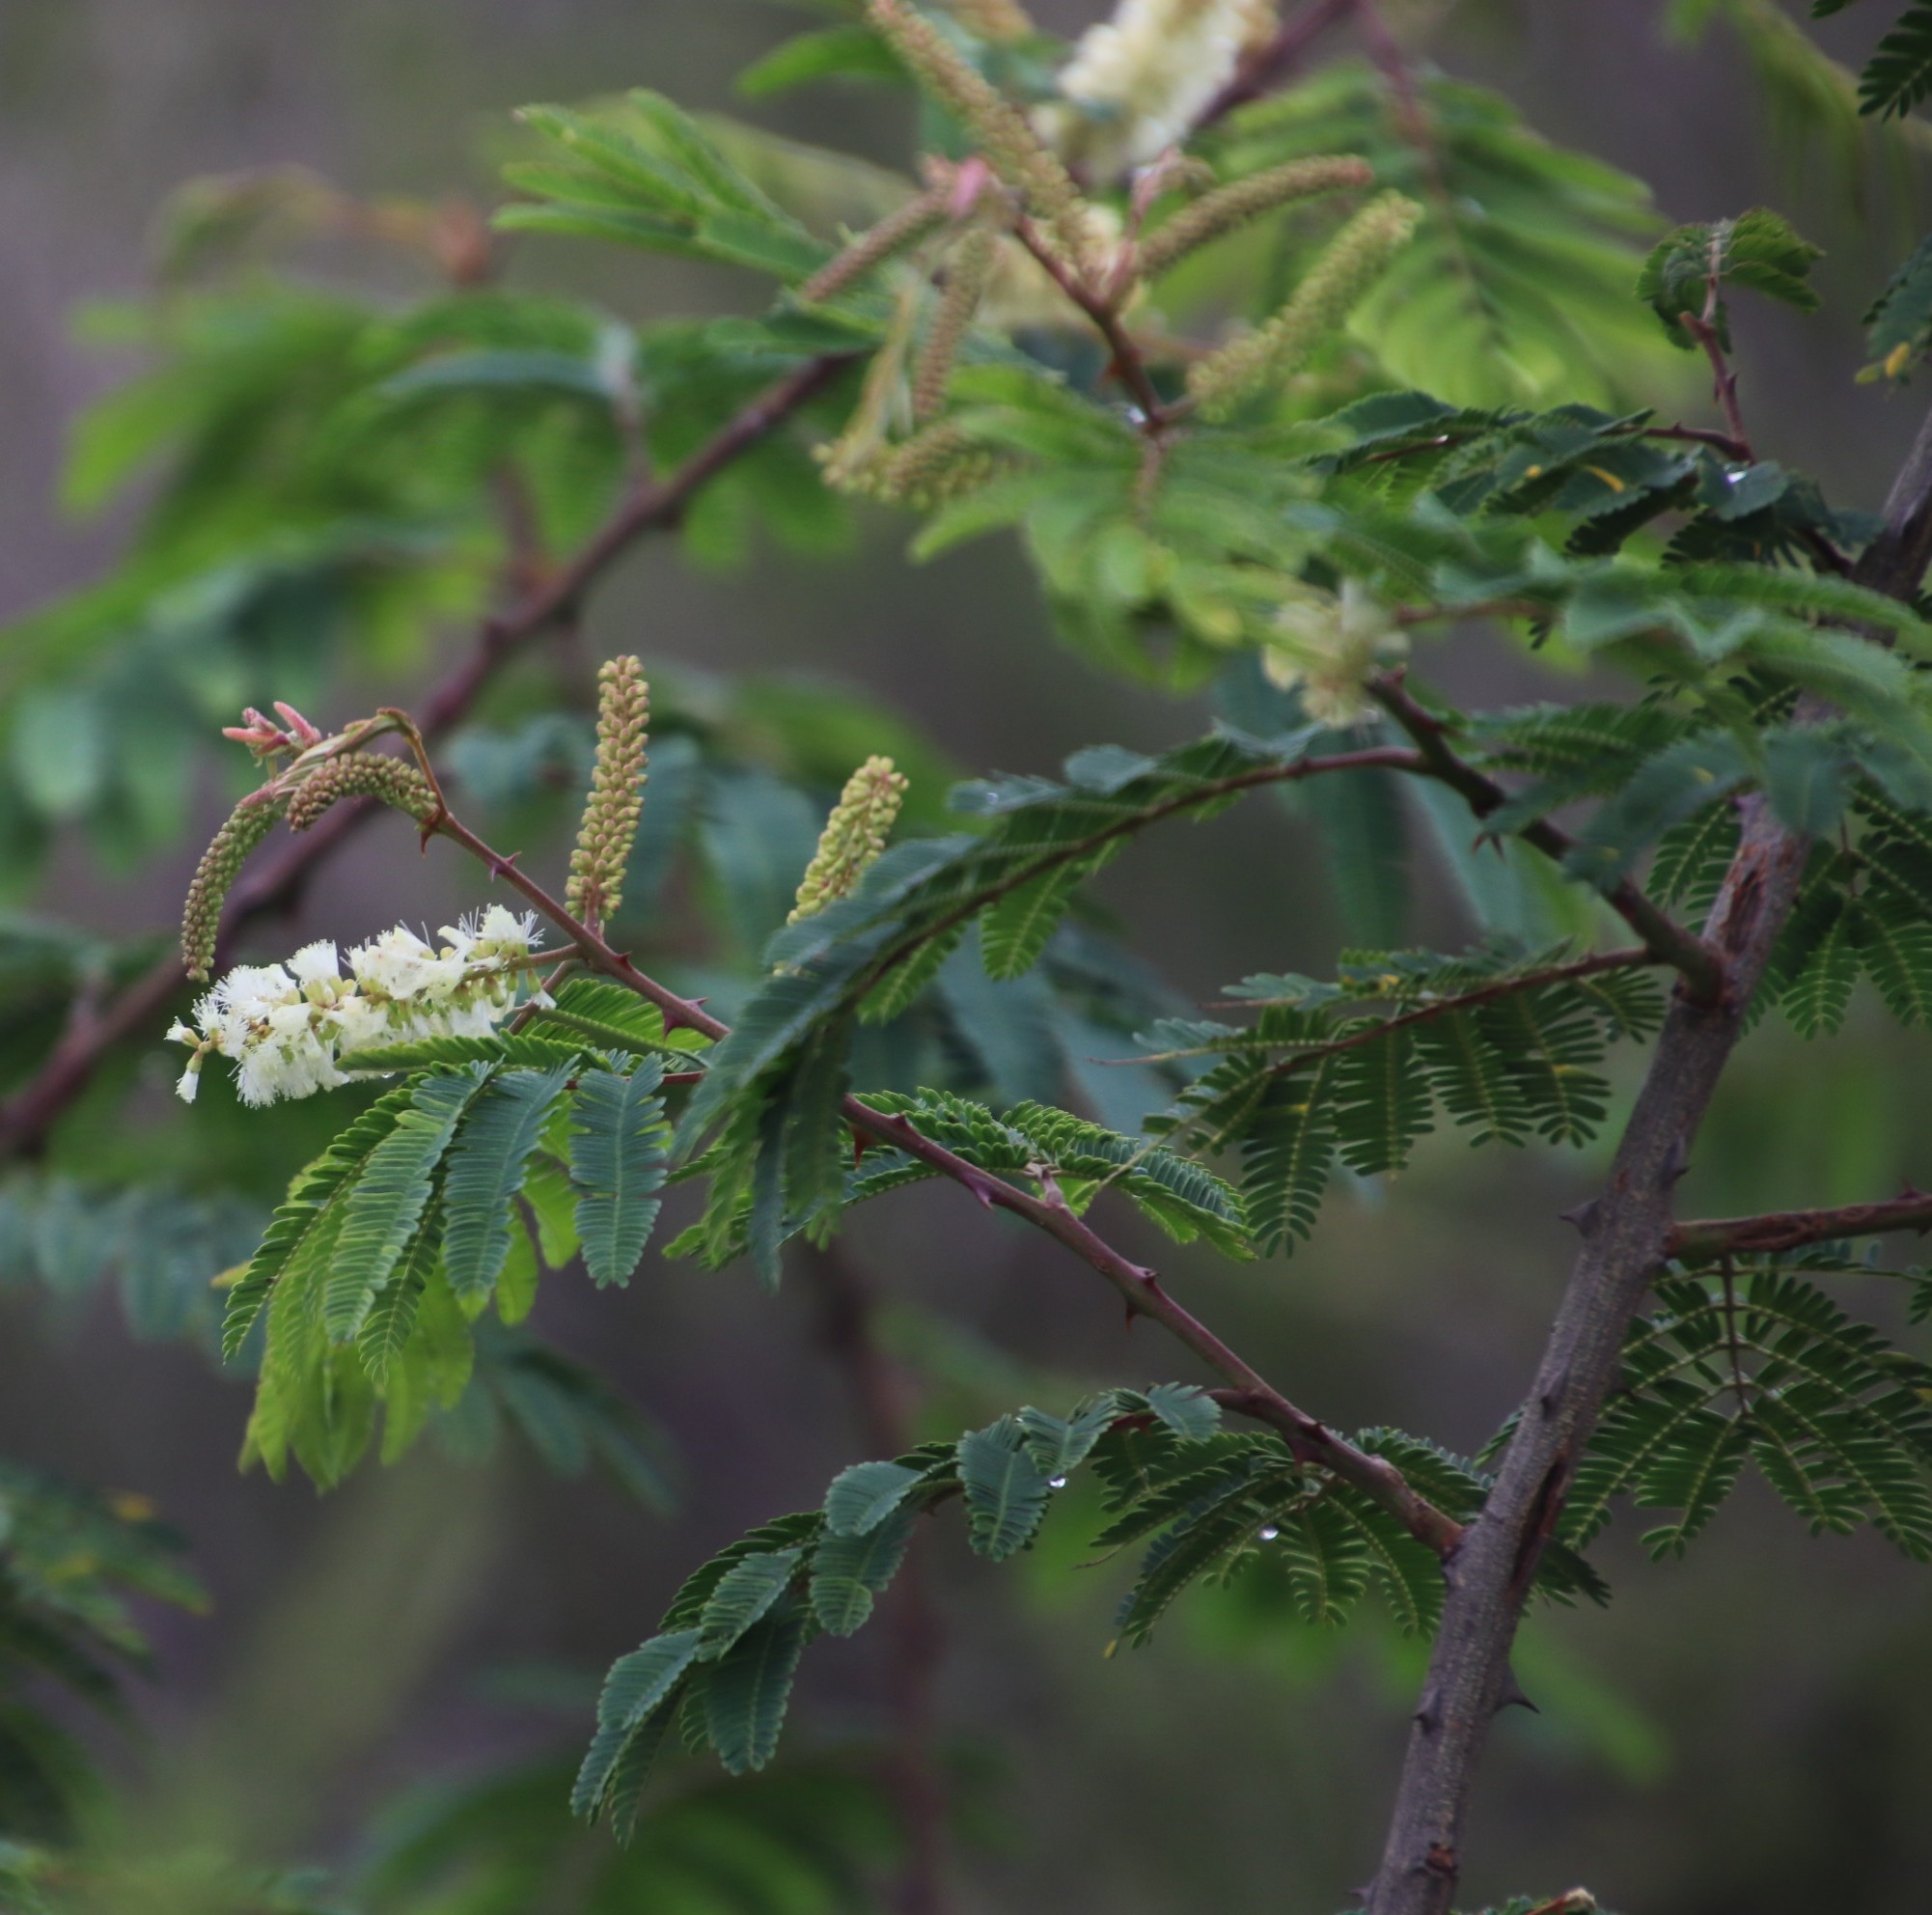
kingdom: Plantae
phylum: Tracheophyta
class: Magnoliopsida
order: Fabales
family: Fabaceae
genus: Senegalia
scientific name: Senegalia ataxacantha
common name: Flame acacia
